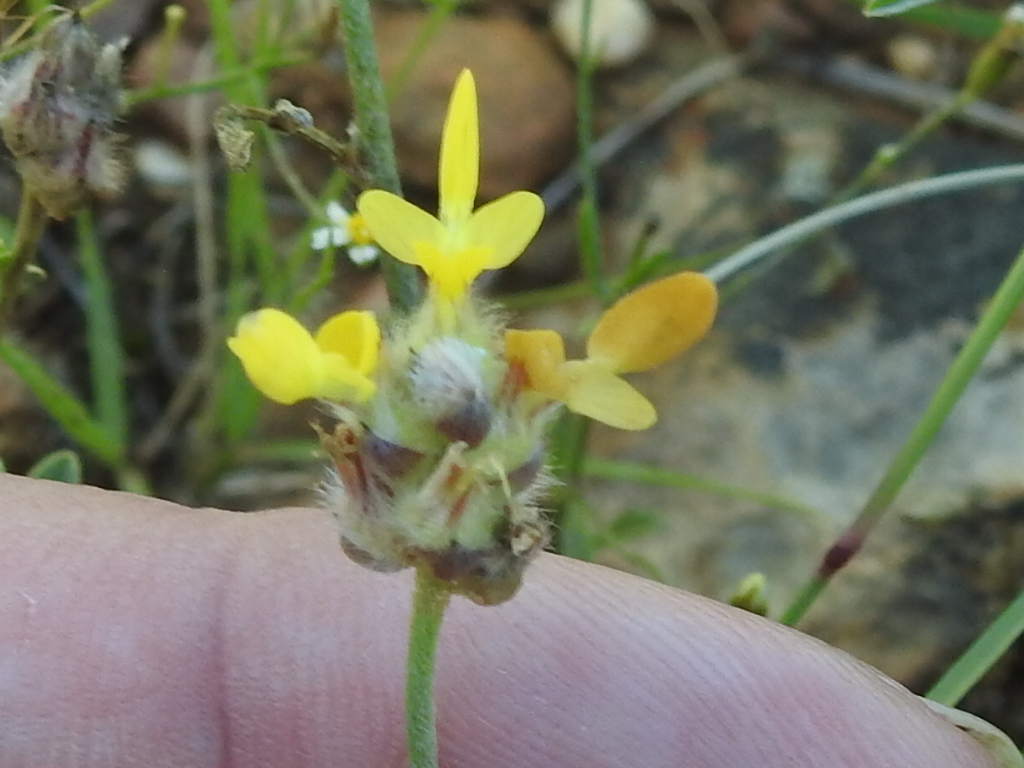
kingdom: Plantae
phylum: Tracheophyta
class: Magnoliopsida
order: Fabales
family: Fabaceae
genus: Dalea
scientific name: Dalea nana
